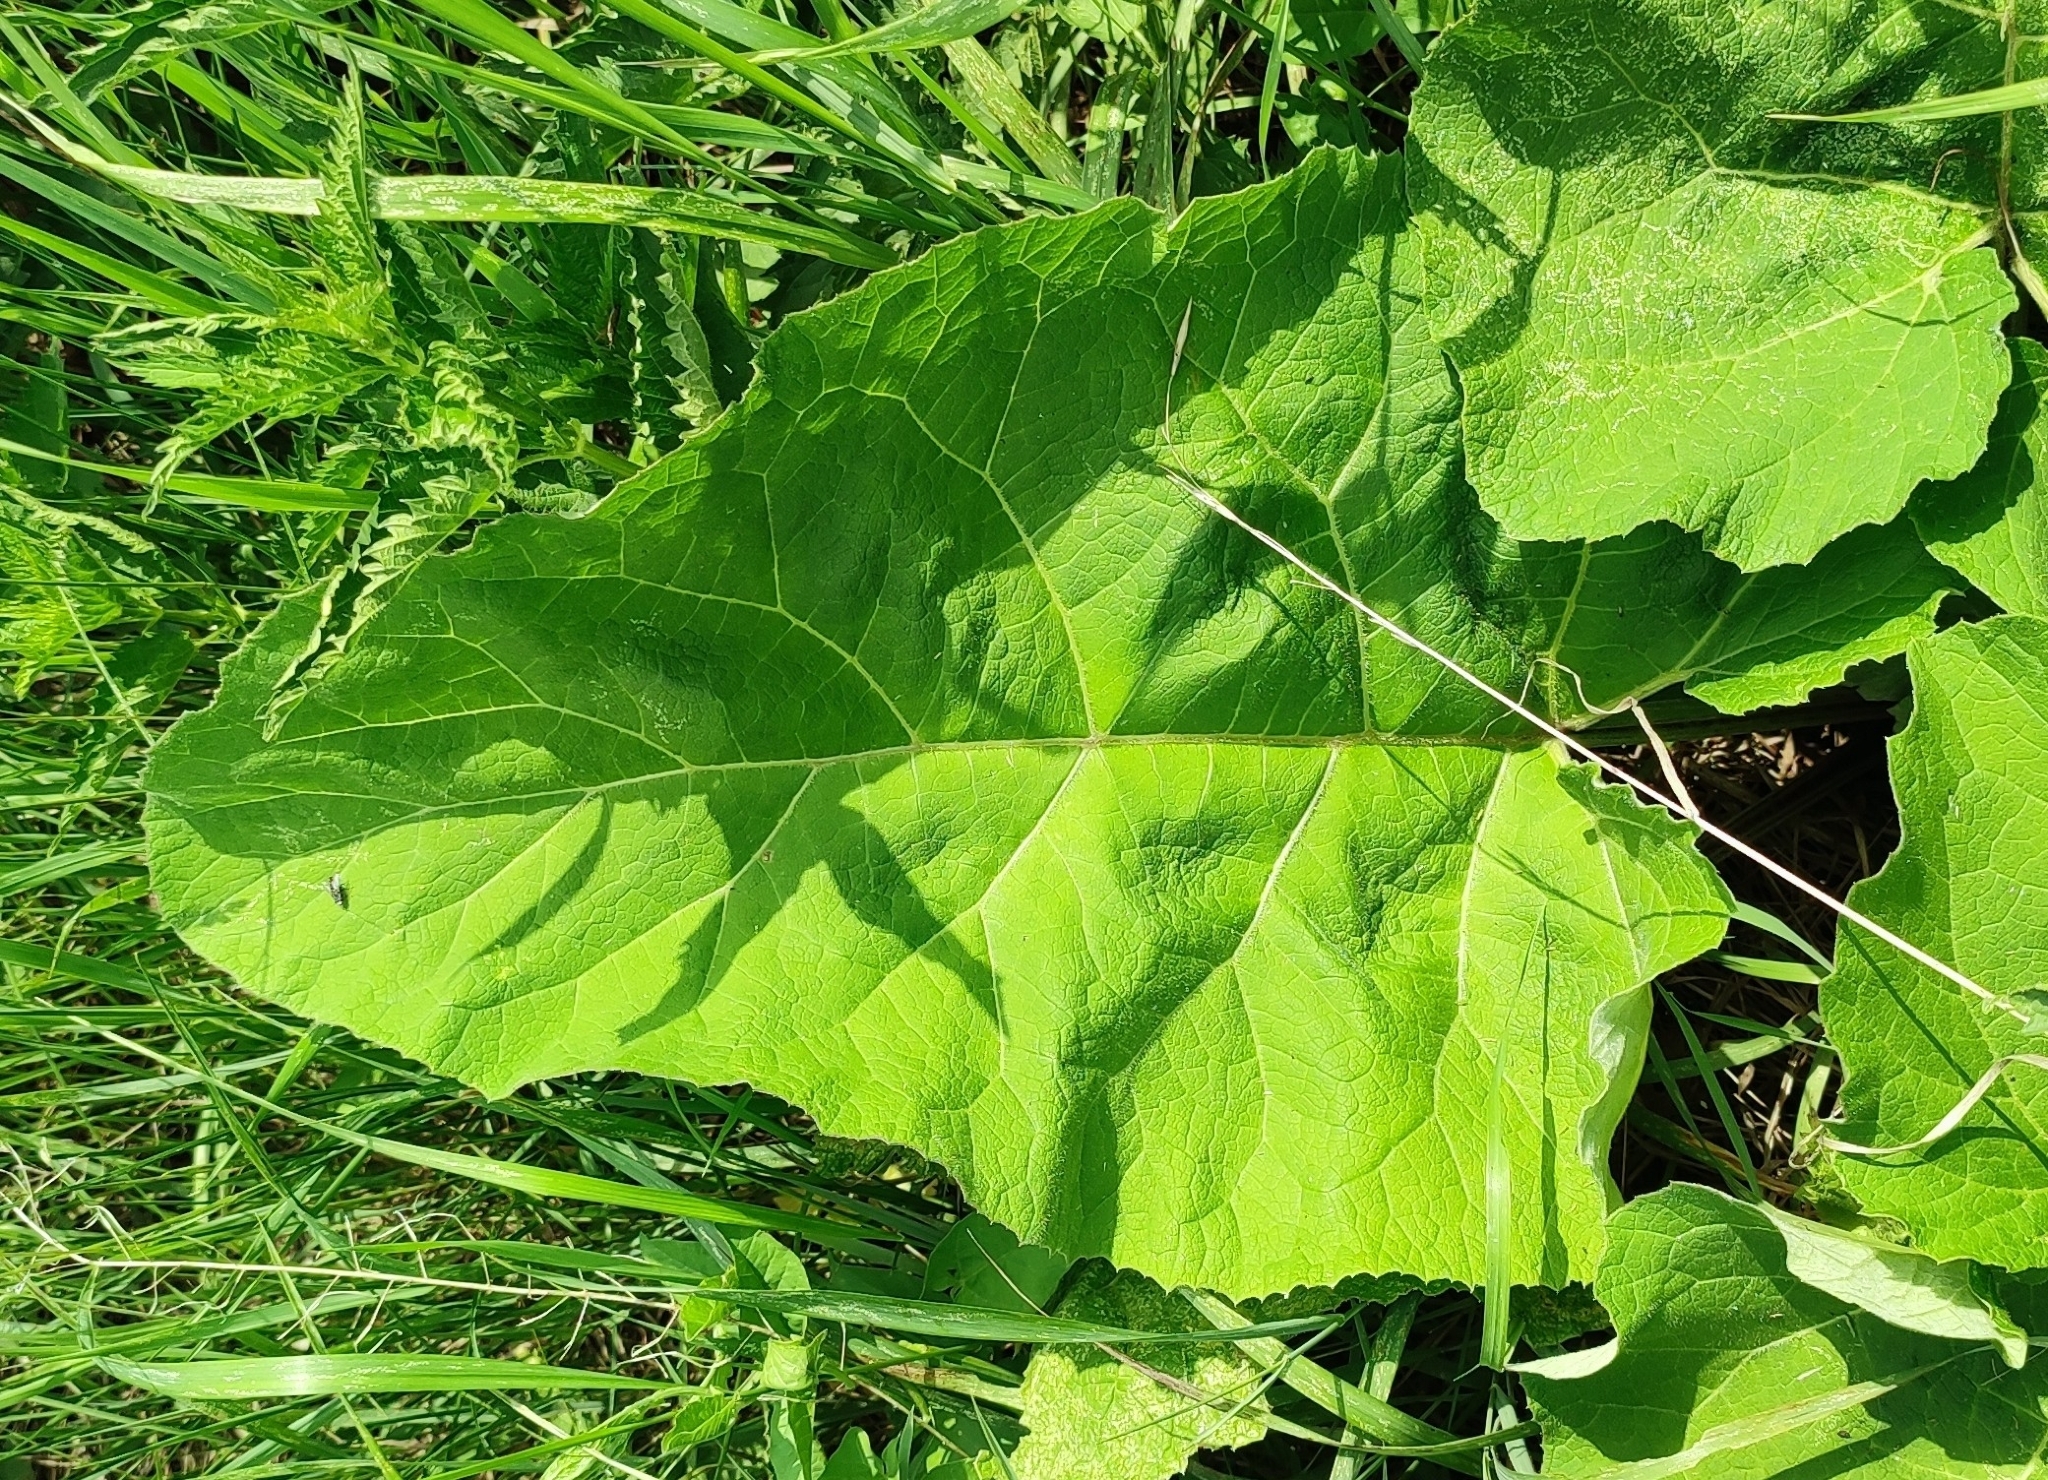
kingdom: Plantae
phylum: Tracheophyta
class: Magnoliopsida
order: Asterales
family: Asteraceae
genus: Arctium
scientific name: Arctium tomentosum
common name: Woolly burdock
